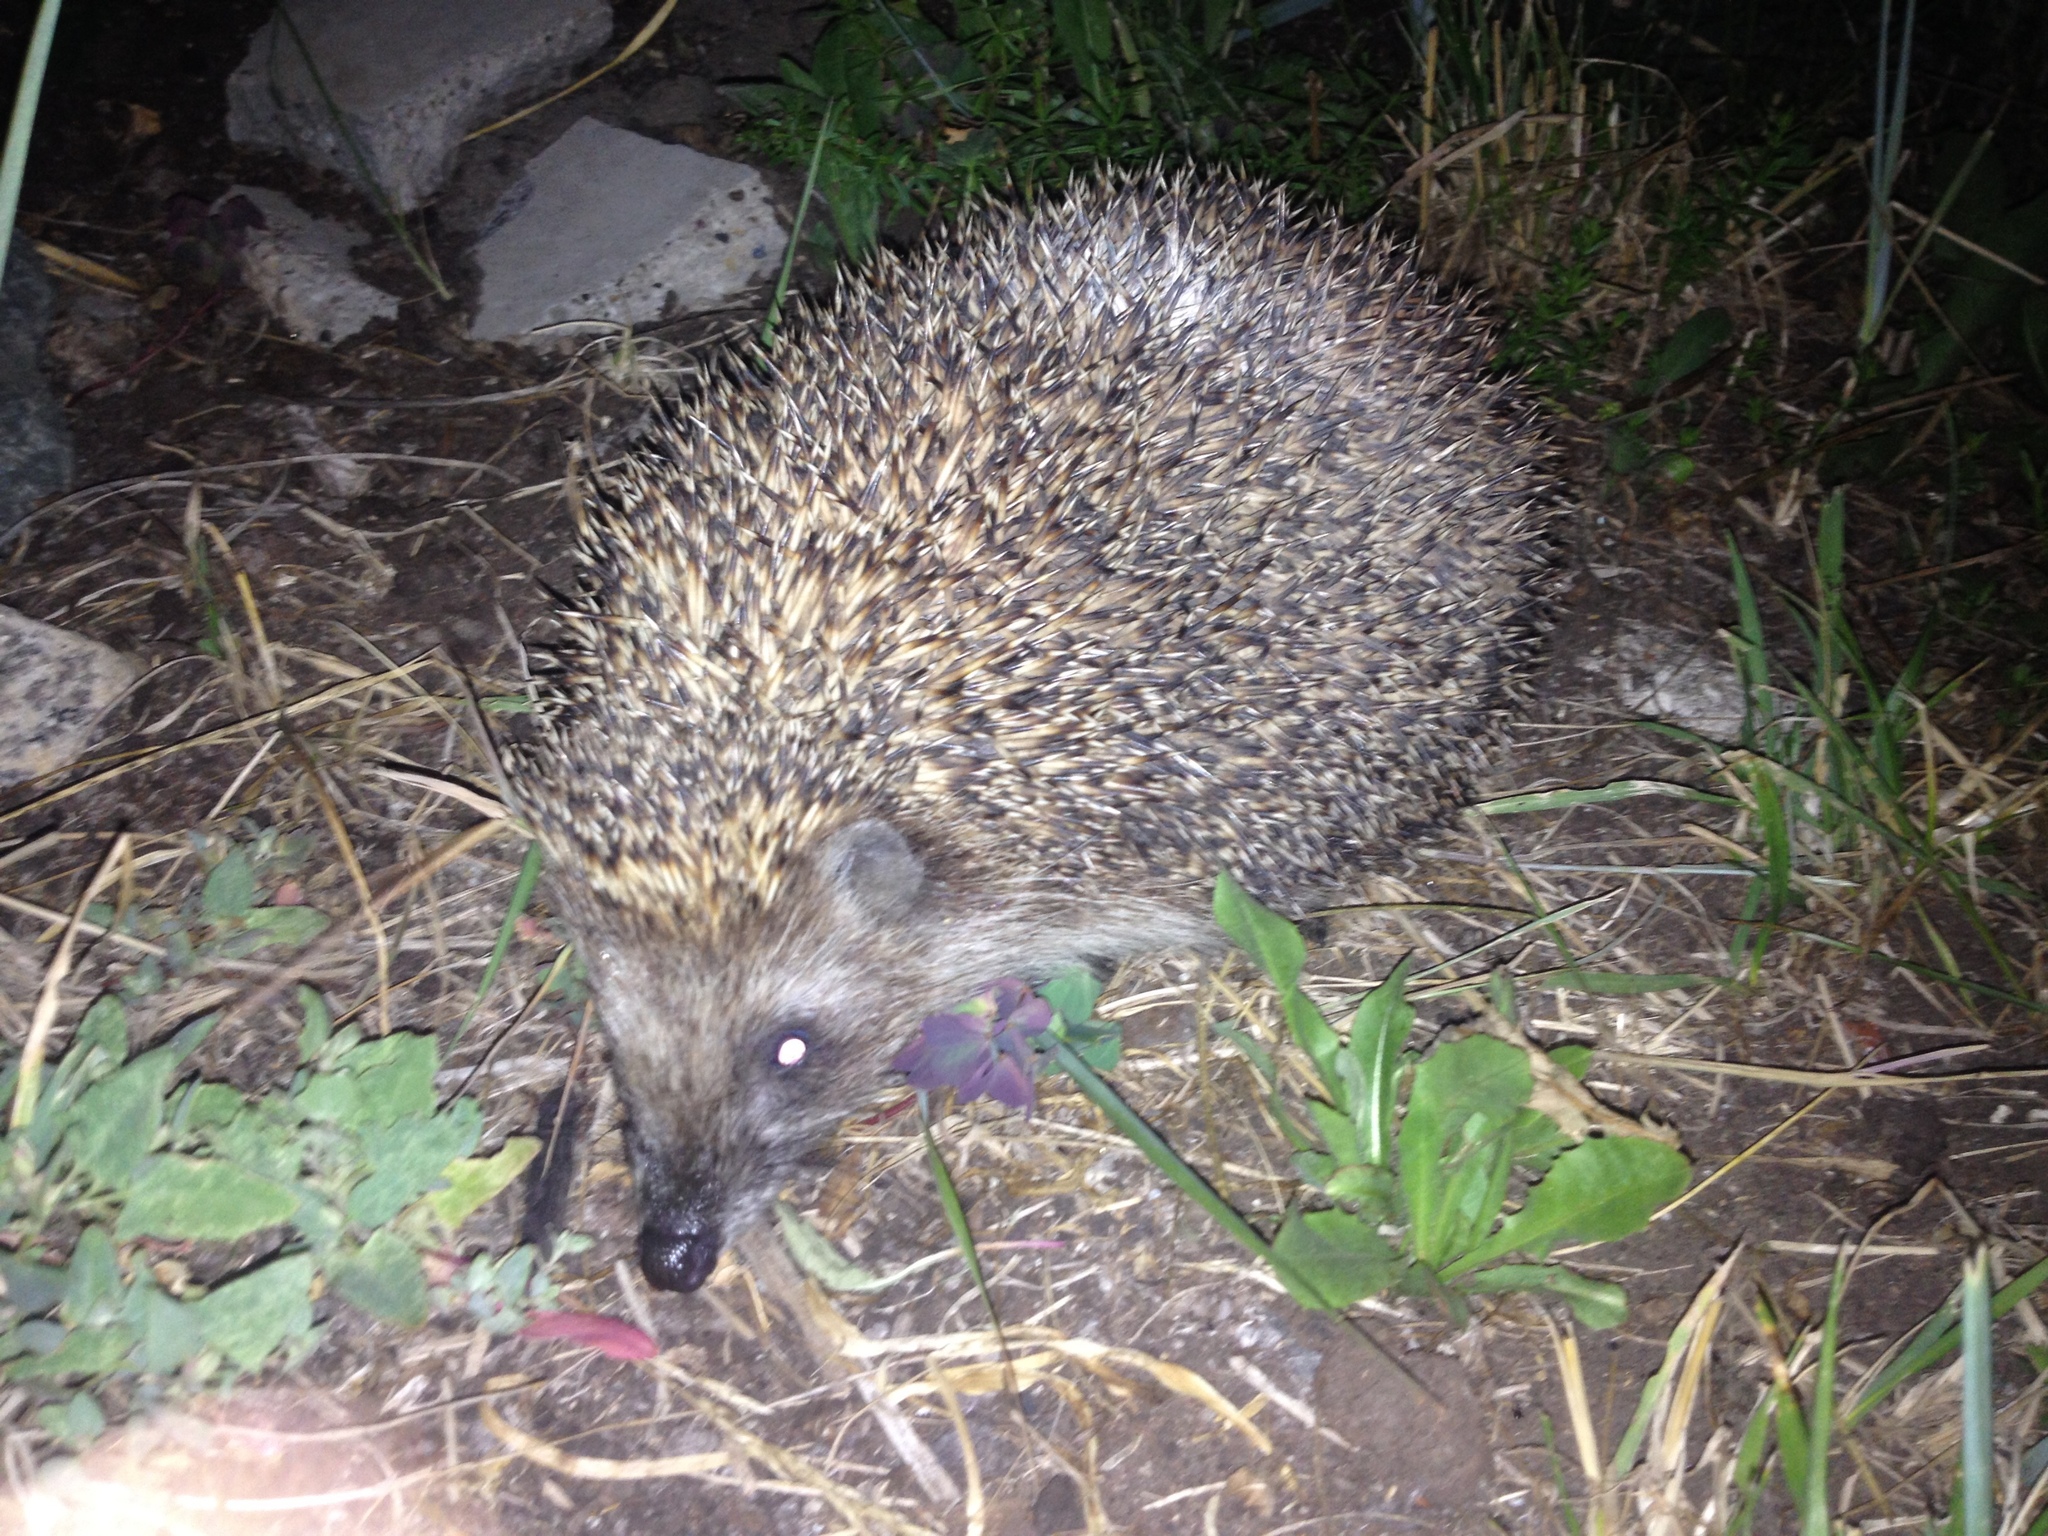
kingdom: Animalia
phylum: Chordata
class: Mammalia
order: Erinaceomorpha
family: Erinaceidae
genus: Erinaceus
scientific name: Erinaceus roumanicus
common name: Northern white-breasted hedgehog
